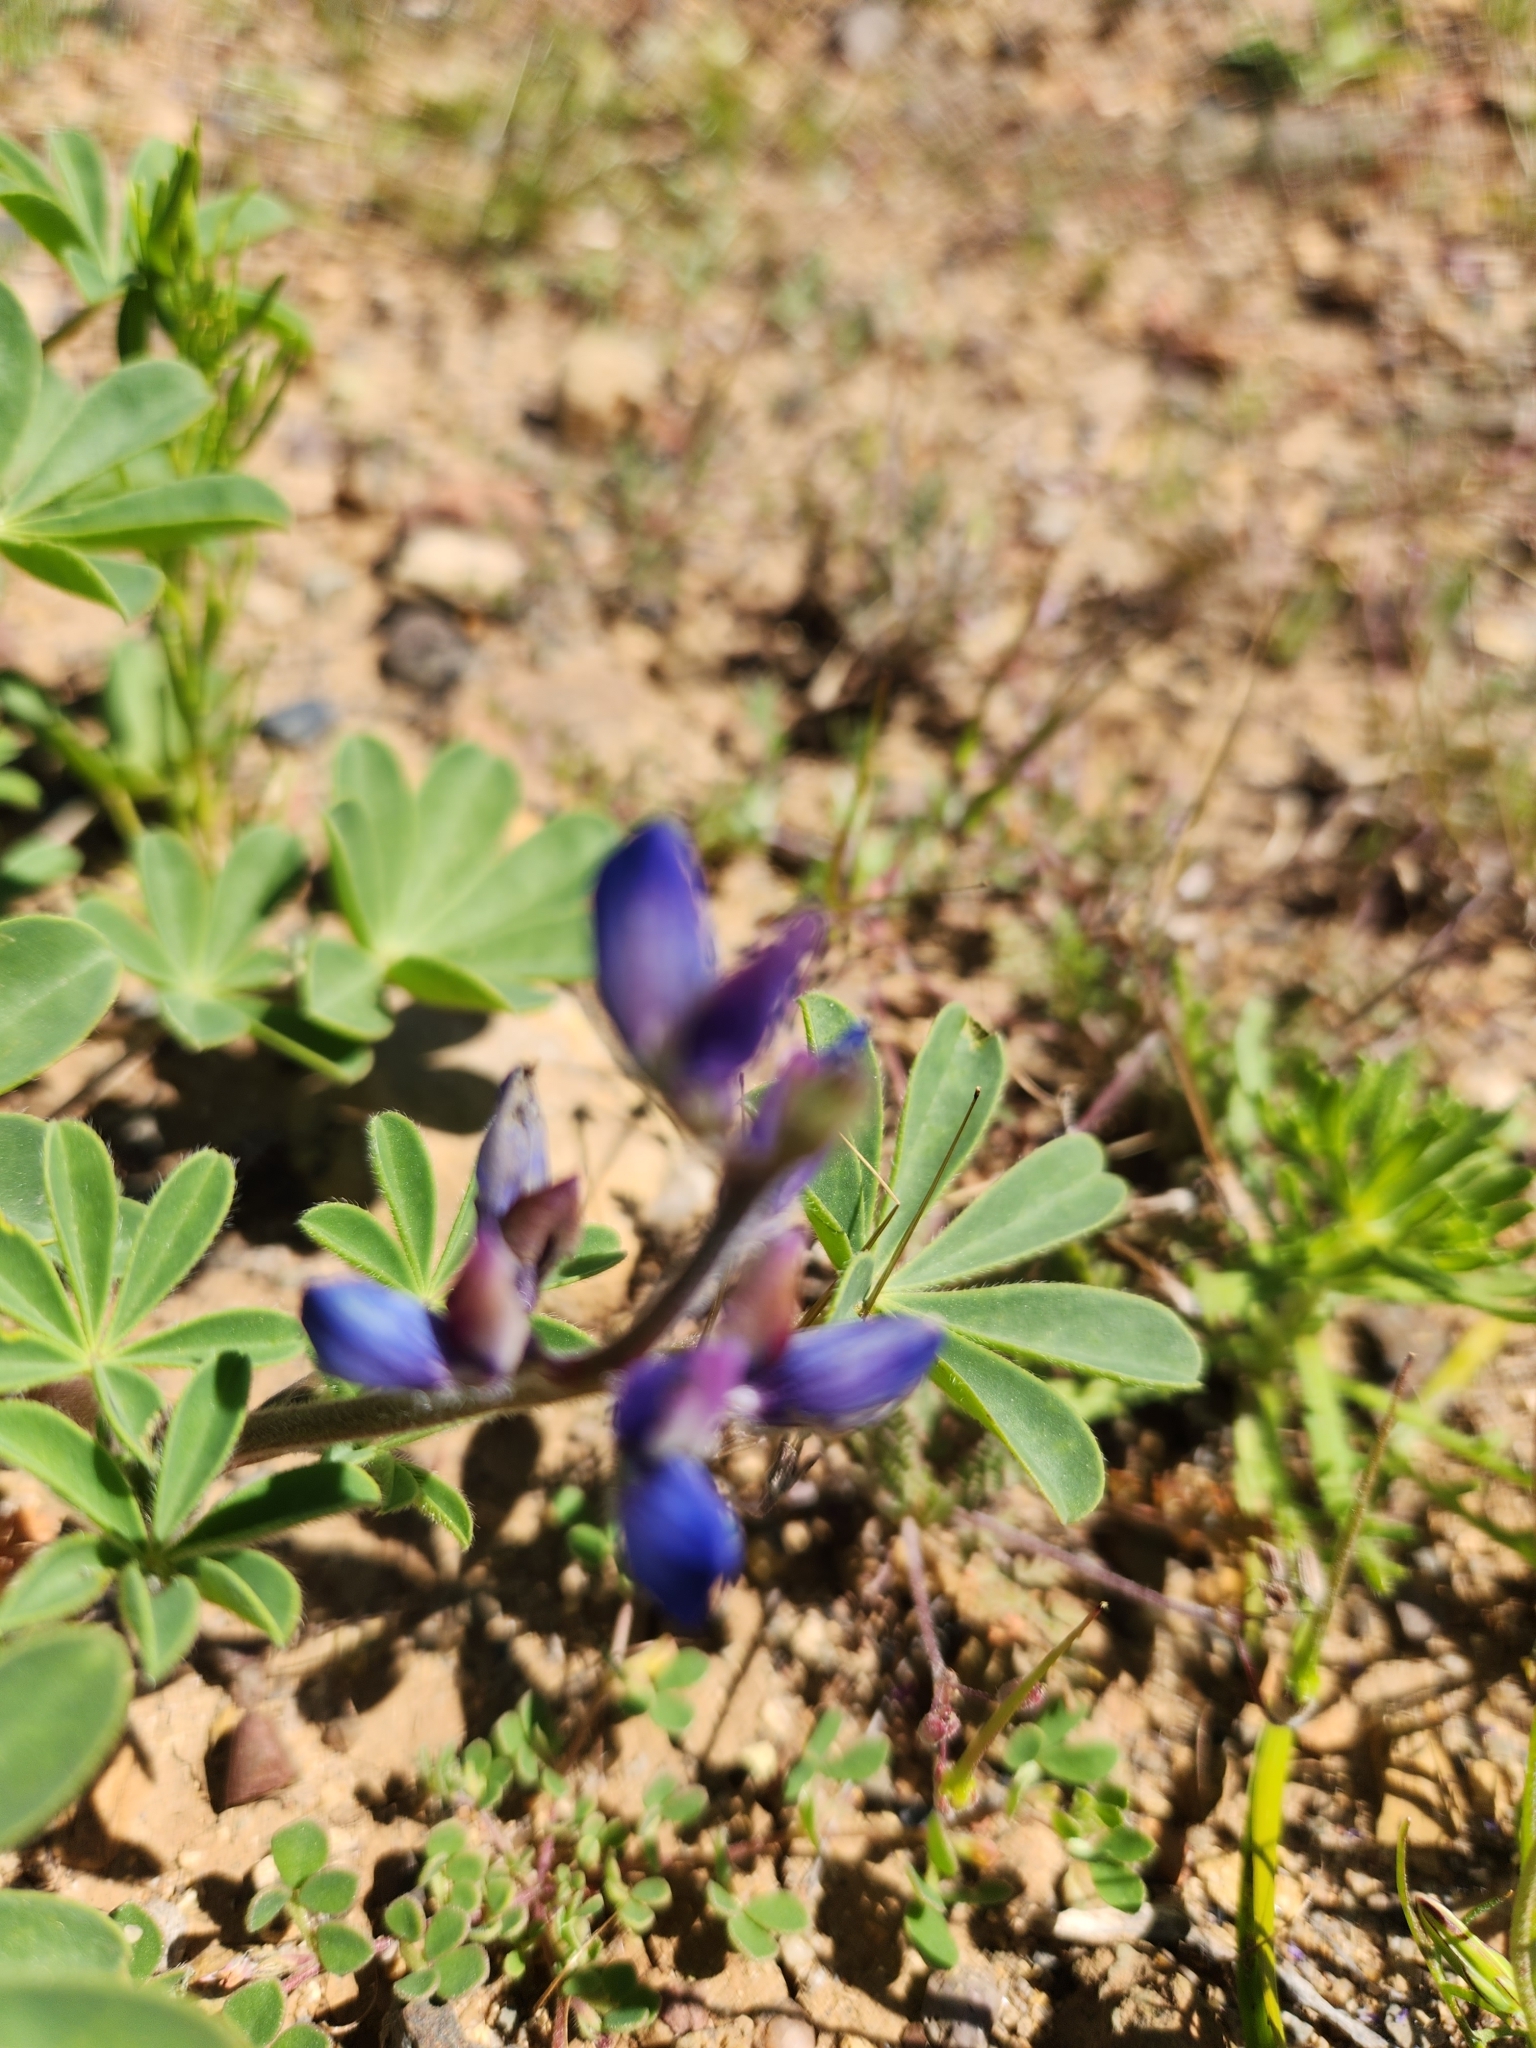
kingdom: Plantae
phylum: Tracheophyta
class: Magnoliopsida
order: Fabales
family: Fabaceae
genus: Lupinus
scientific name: Lupinus succulentus
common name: Arroyo lupine
